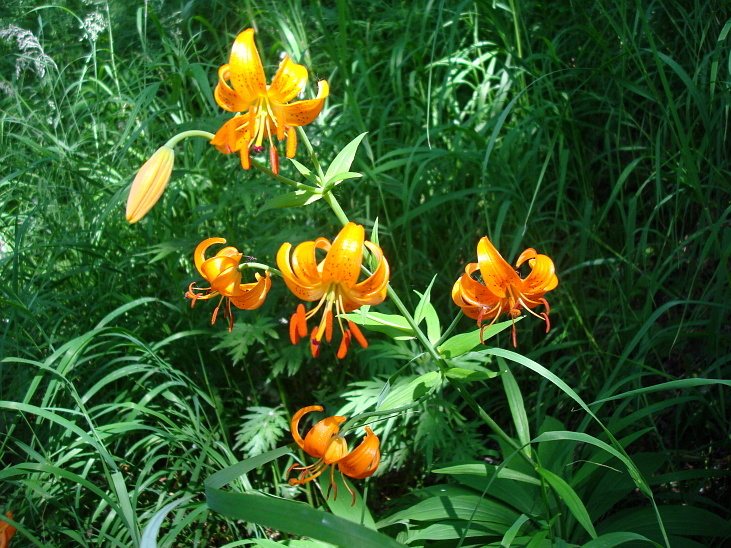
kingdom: Plantae
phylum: Tracheophyta
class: Liliopsida
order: Liliales
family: Liliaceae
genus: Lilium
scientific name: Lilium debile
